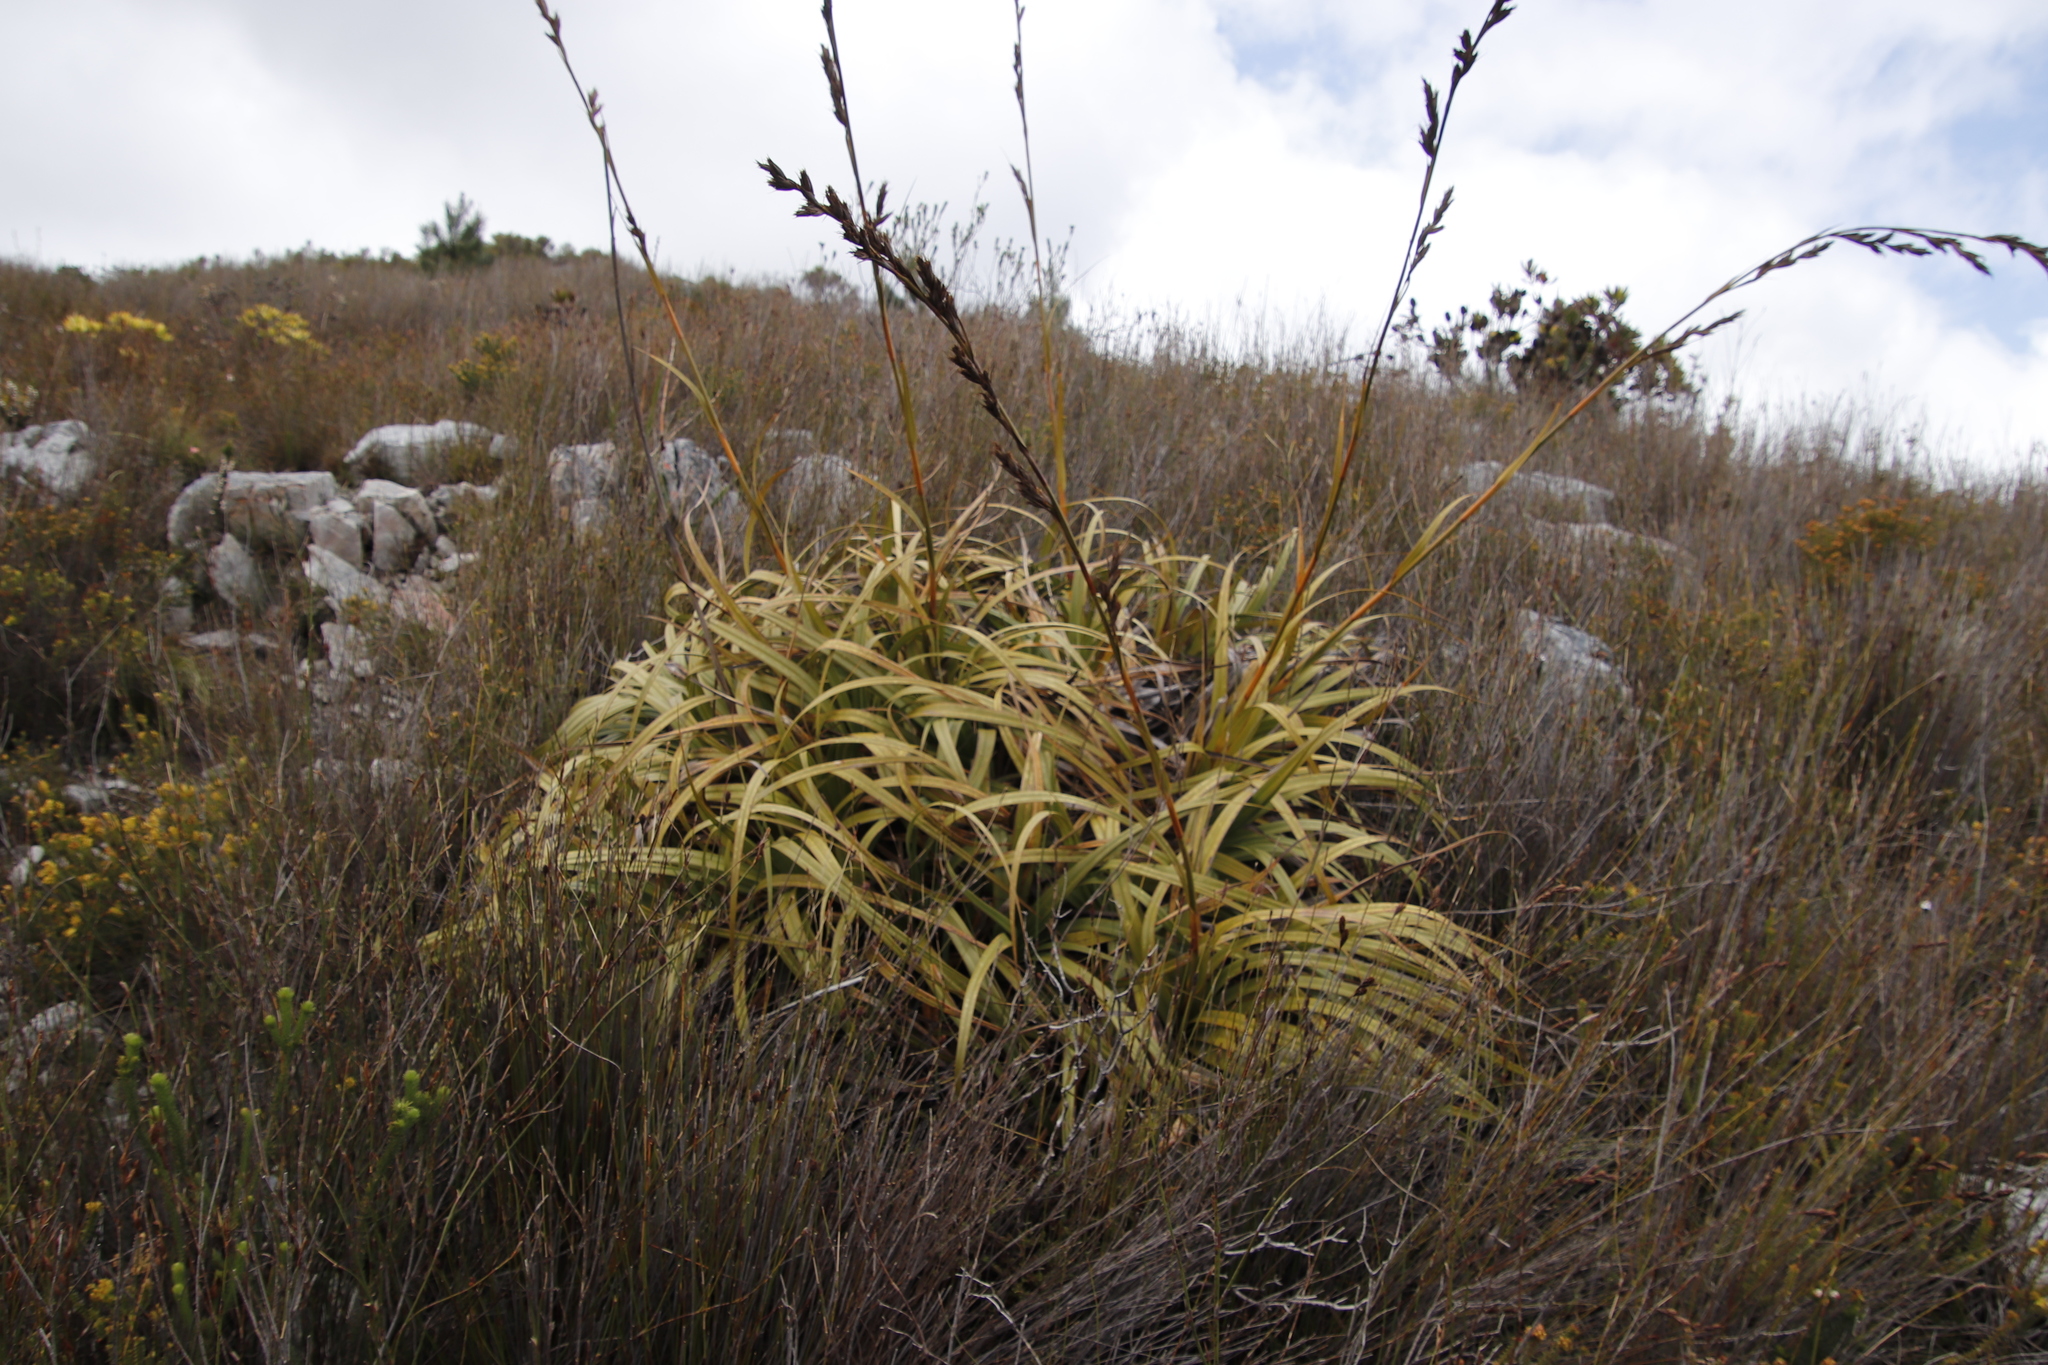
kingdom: Plantae
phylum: Tracheophyta
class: Liliopsida
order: Poales
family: Cyperaceae
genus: Tetraria
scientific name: Tetraria thermalis
